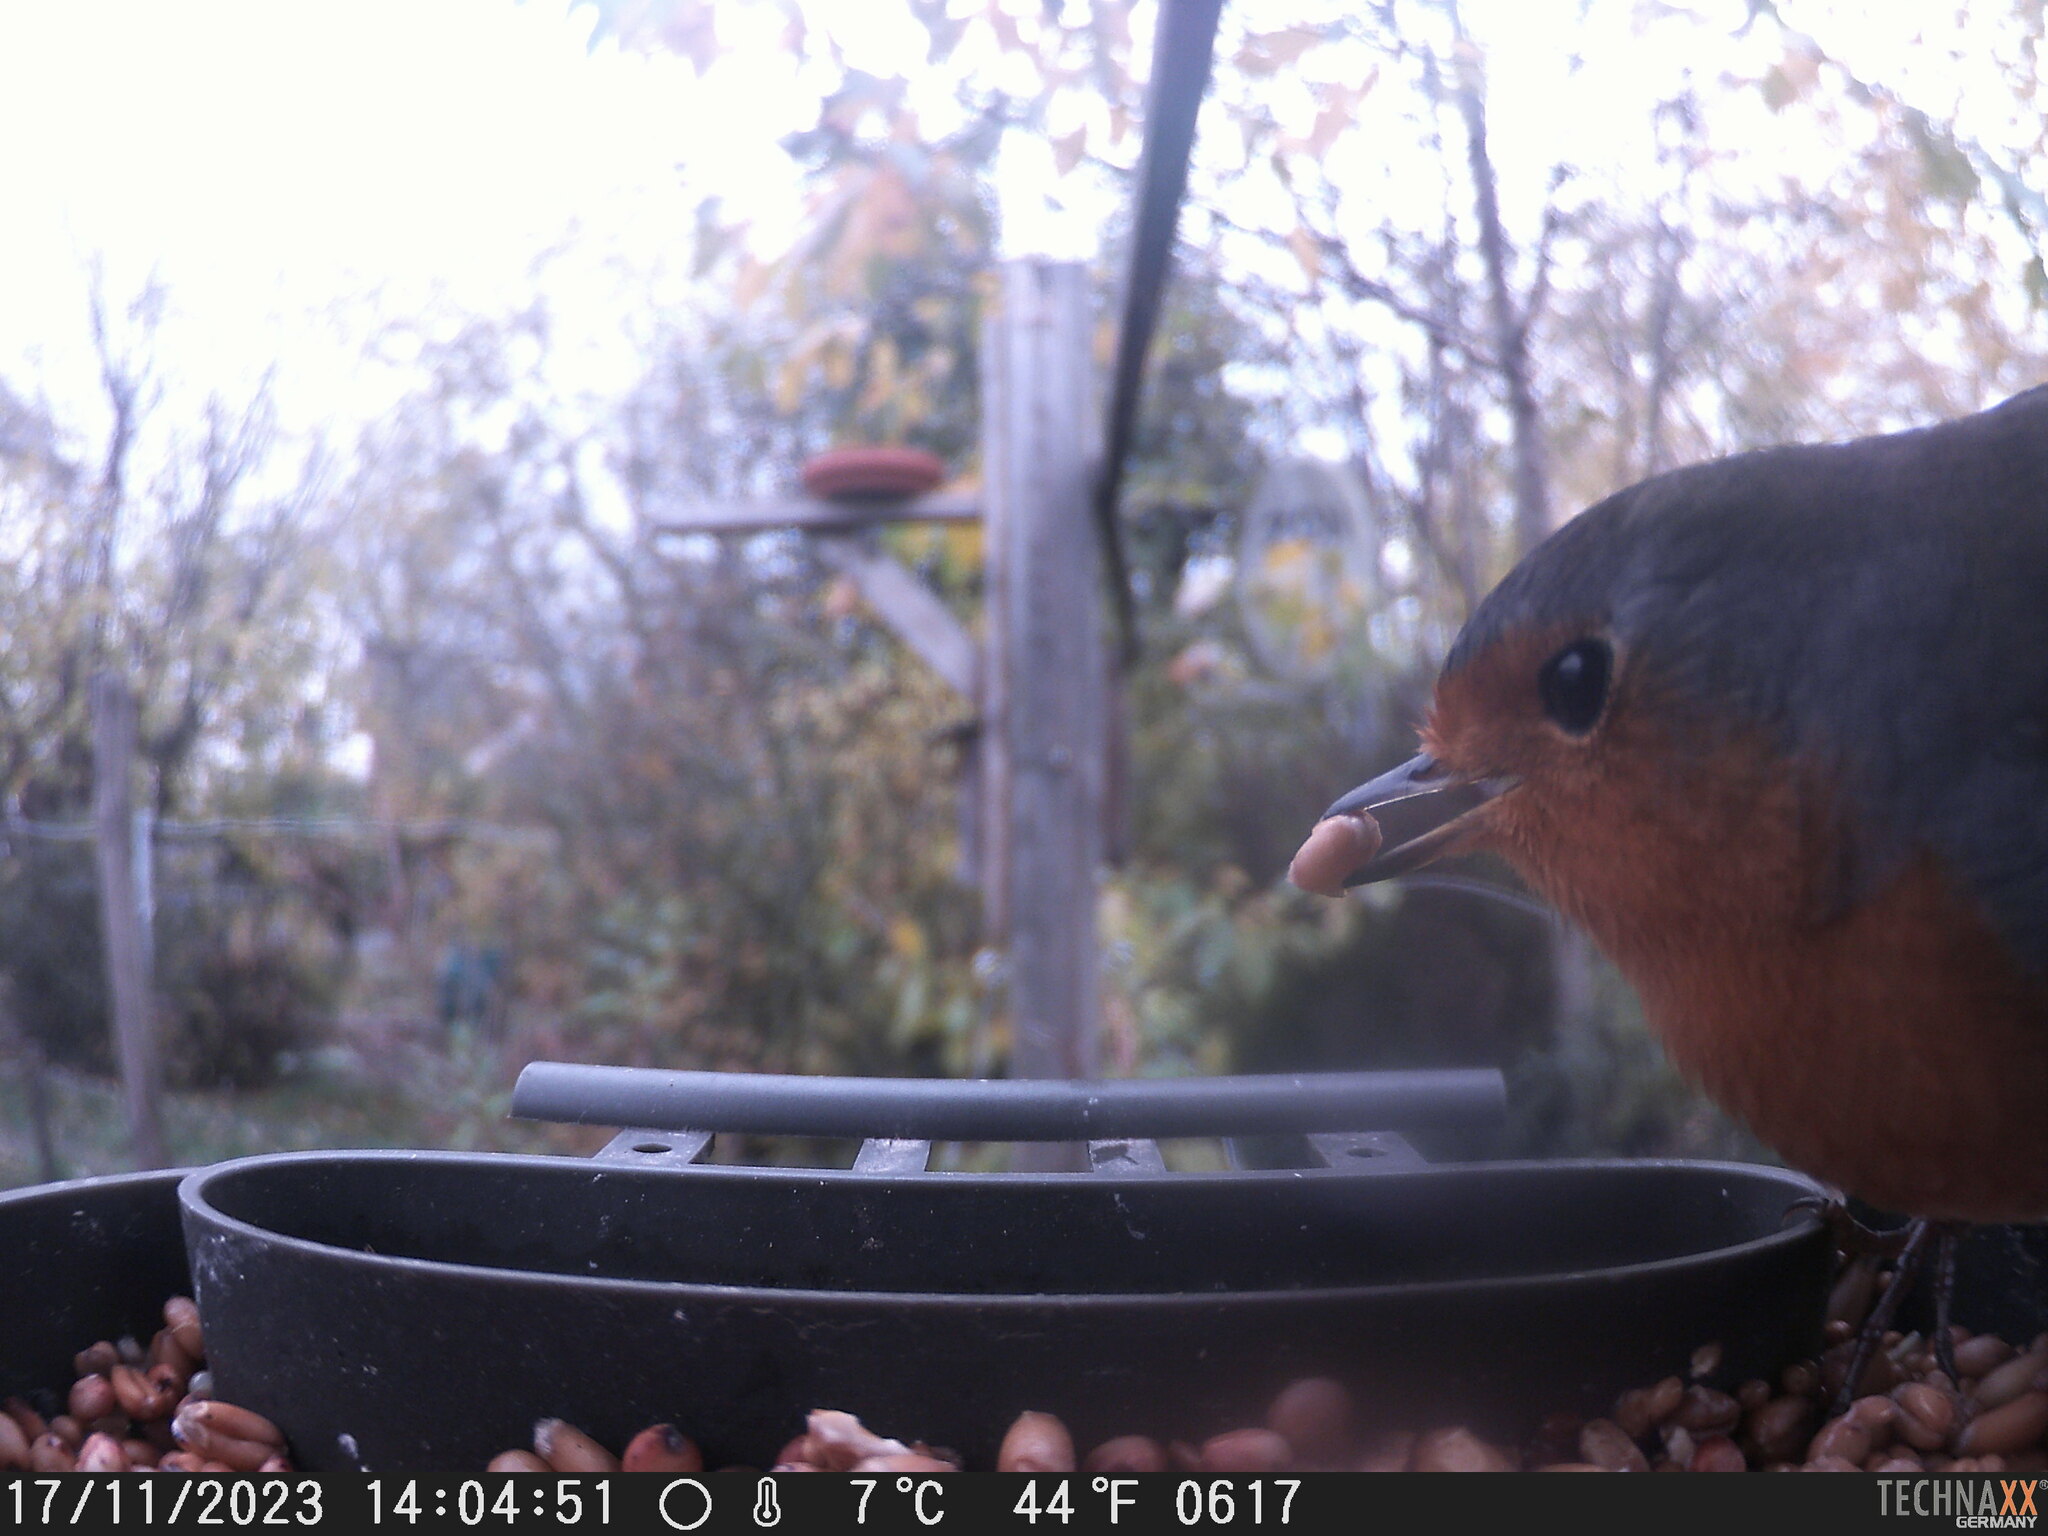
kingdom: Animalia
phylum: Chordata
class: Aves
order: Passeriformes
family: Muscicapidae
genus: Erithacus
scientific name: Erithacus rubecula
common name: European robin
